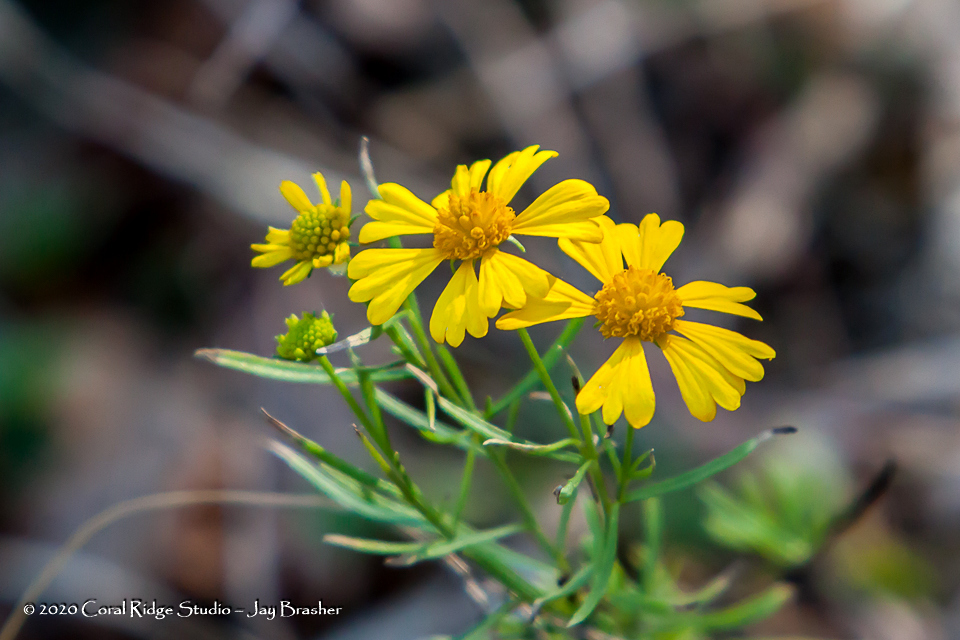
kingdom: Plantae
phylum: Tracheophyta
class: Magnoliopsida
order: Asterales
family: Asteraceae
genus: Helenium
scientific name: Helenium amarum
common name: Bitter sneezeweed
